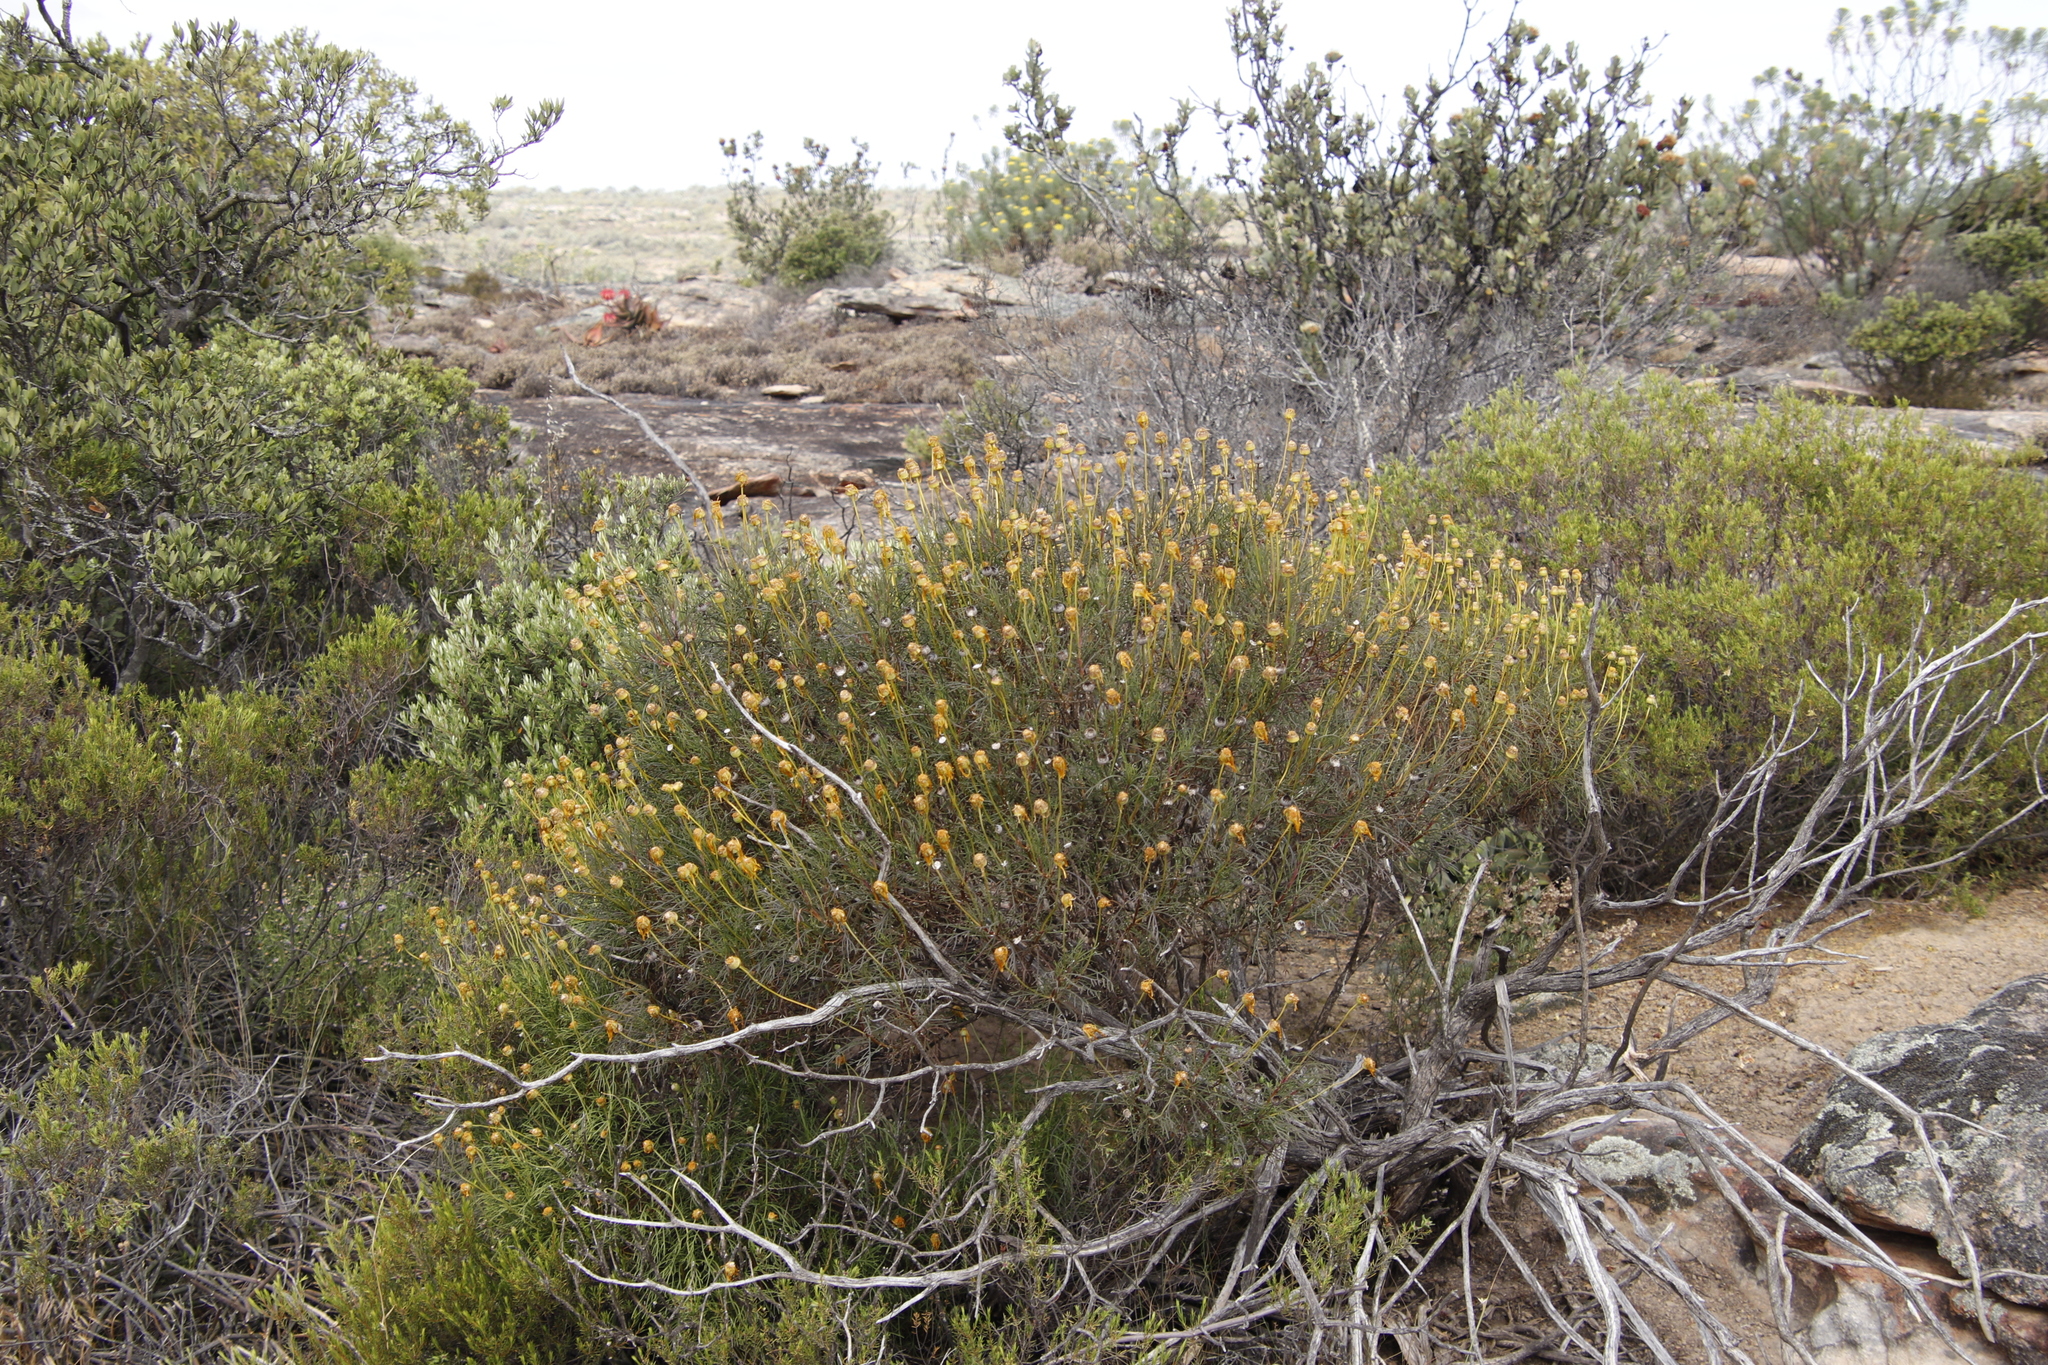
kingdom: Plantae
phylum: Tracheophyta
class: Magnoliopsida
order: Asterales
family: Asteraceae
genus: Euryops
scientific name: Euryops speciosissimus
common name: Clanwilliam daisy
